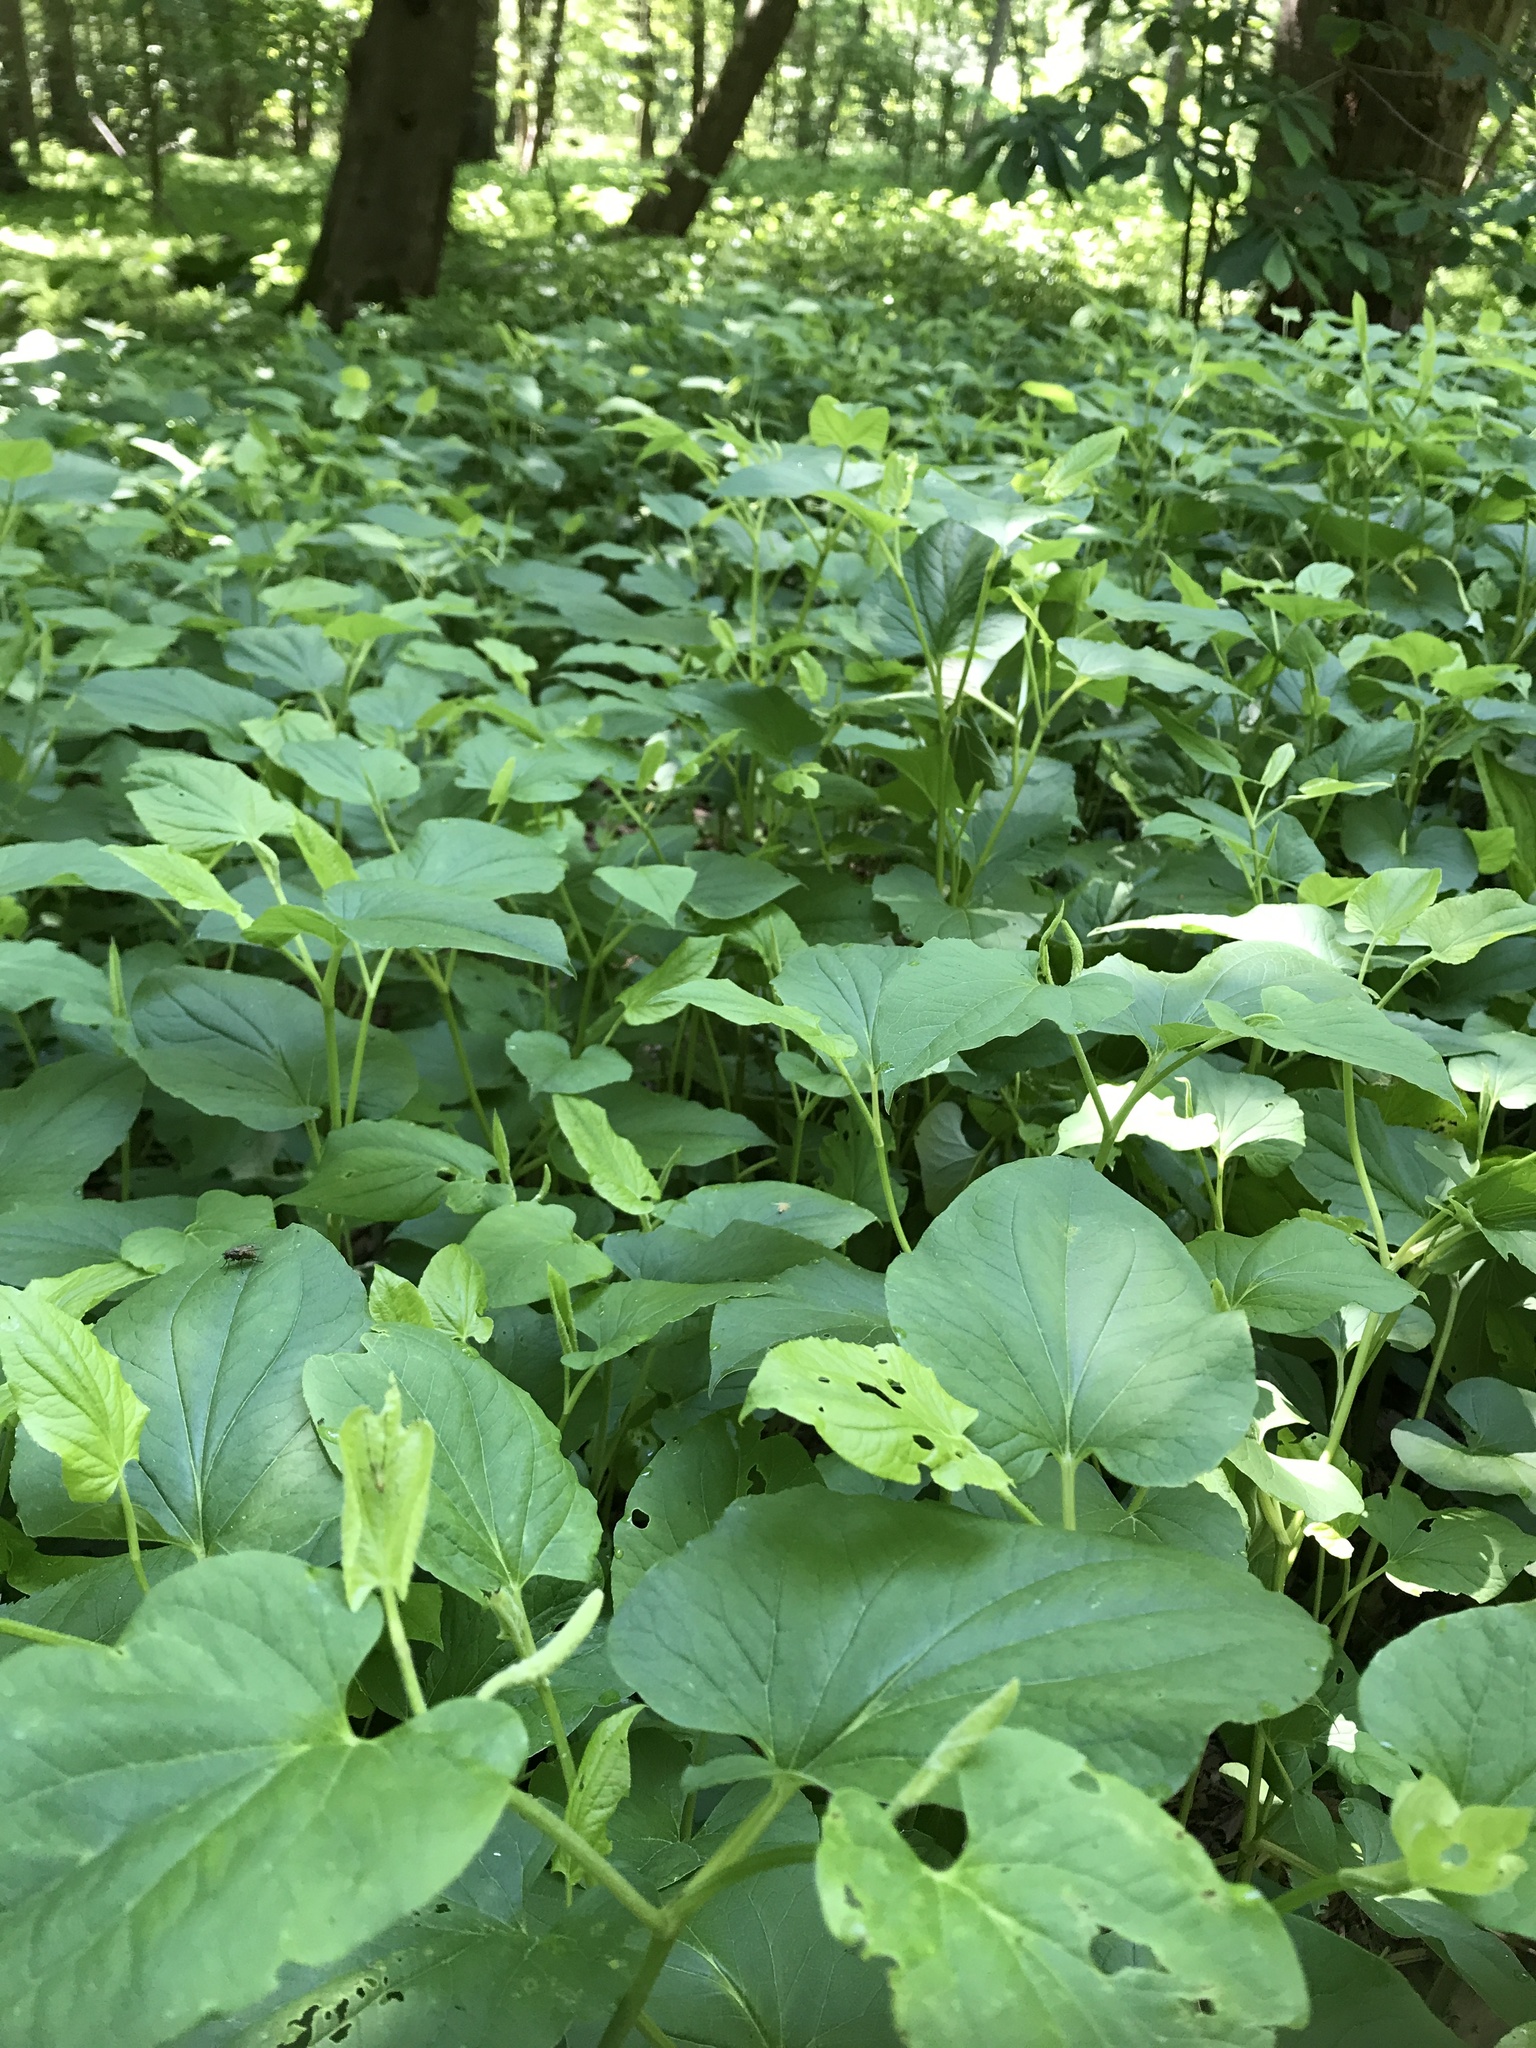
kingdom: Plantae
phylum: Tracheophyta
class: Magnoliopsida
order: Piperales
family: Saururaceae
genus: Saururus
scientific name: Saururus cernuus
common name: Lizard's-tail
